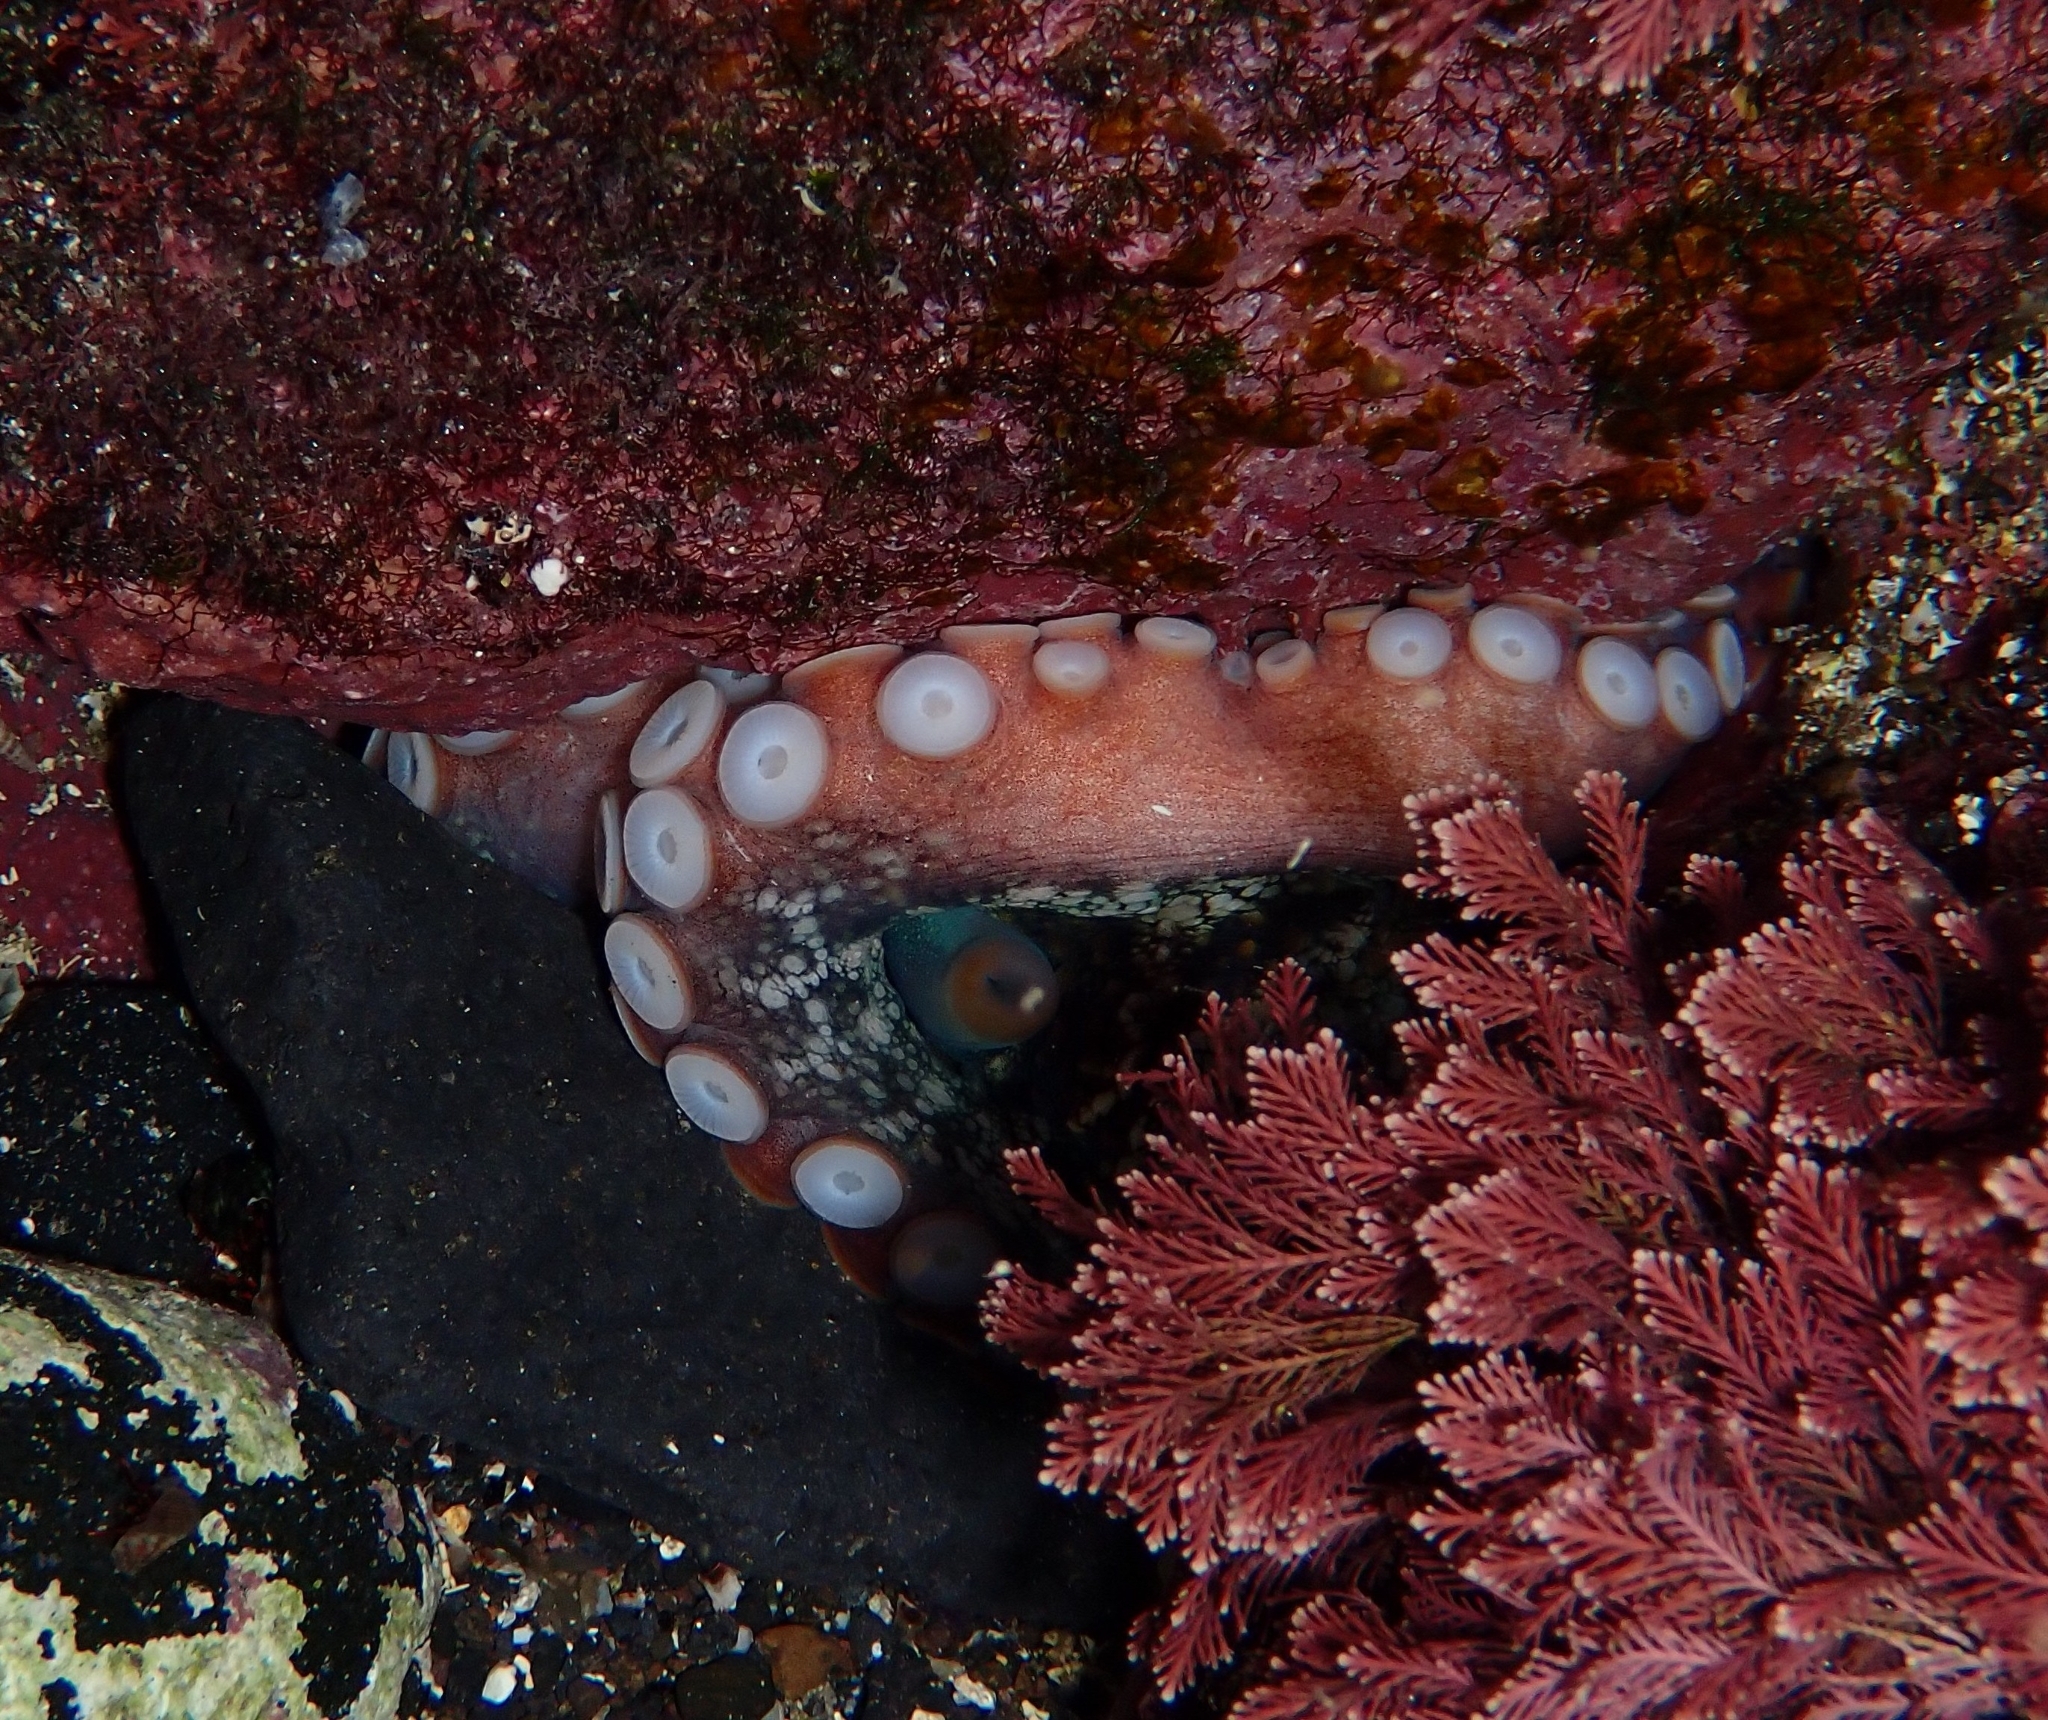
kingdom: Animalia
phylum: Mollusca
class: Cephalopoda
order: Octopoda
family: Octopodidae
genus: Octopus
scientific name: Octopus vulgaris
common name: Common octopus
